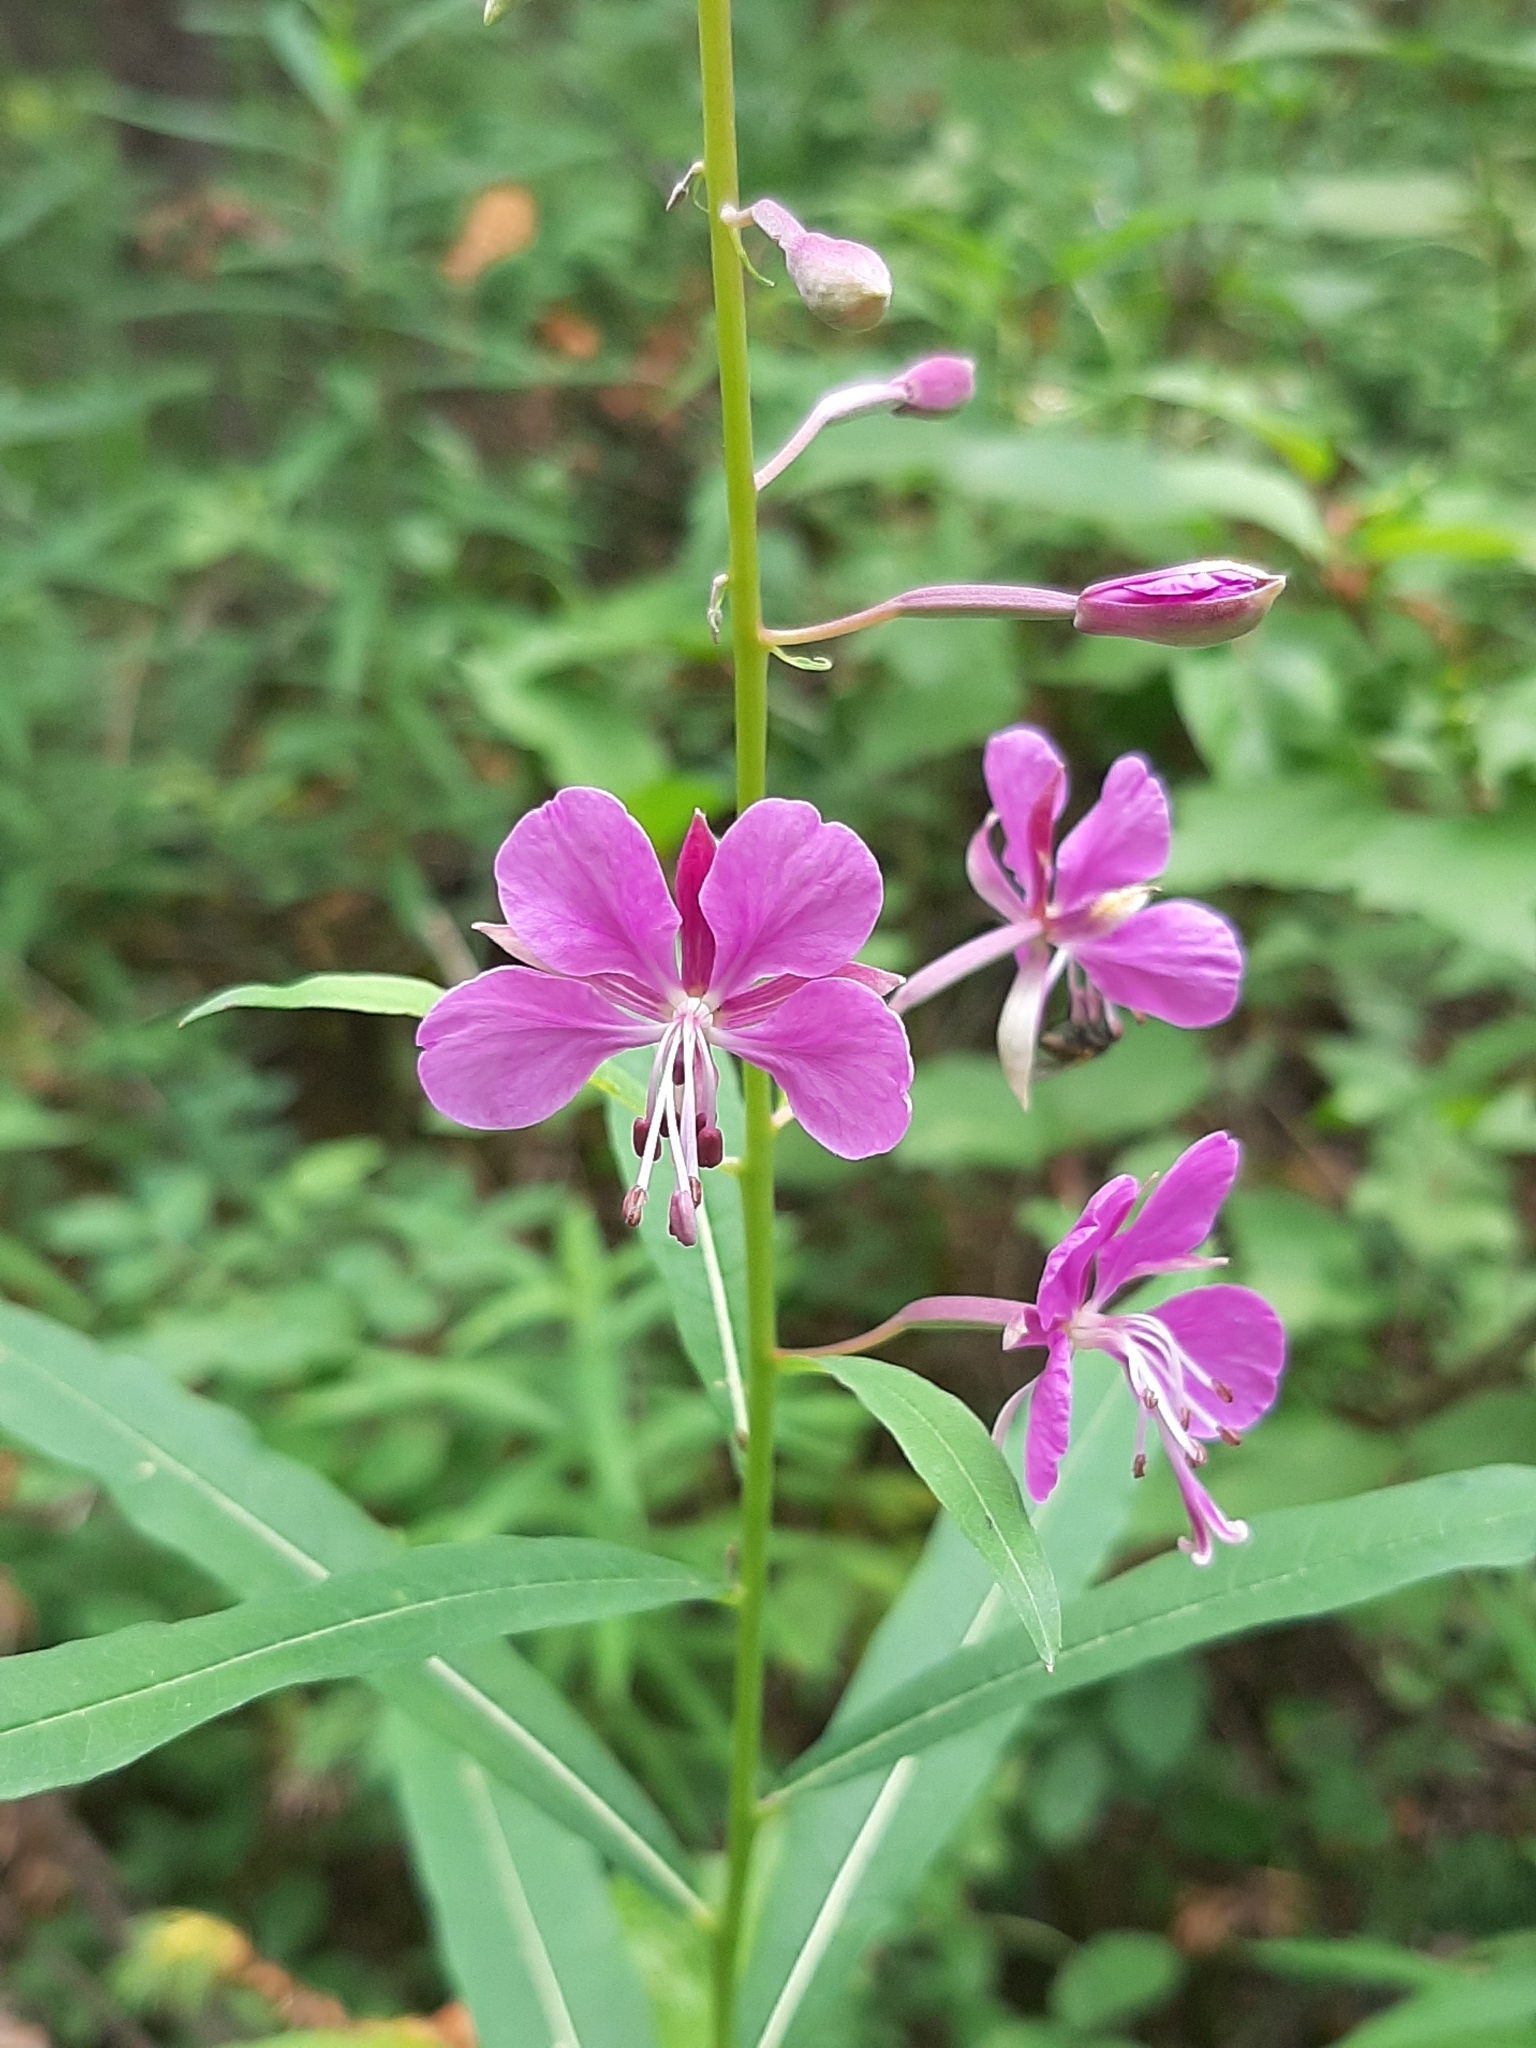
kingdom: Plantae
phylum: Tracheophyta
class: Magnoliopsida
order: Myrtales
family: Onagraceae
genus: Chamaenerion
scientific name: Chamaenerion angustifolium
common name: Fireweed
